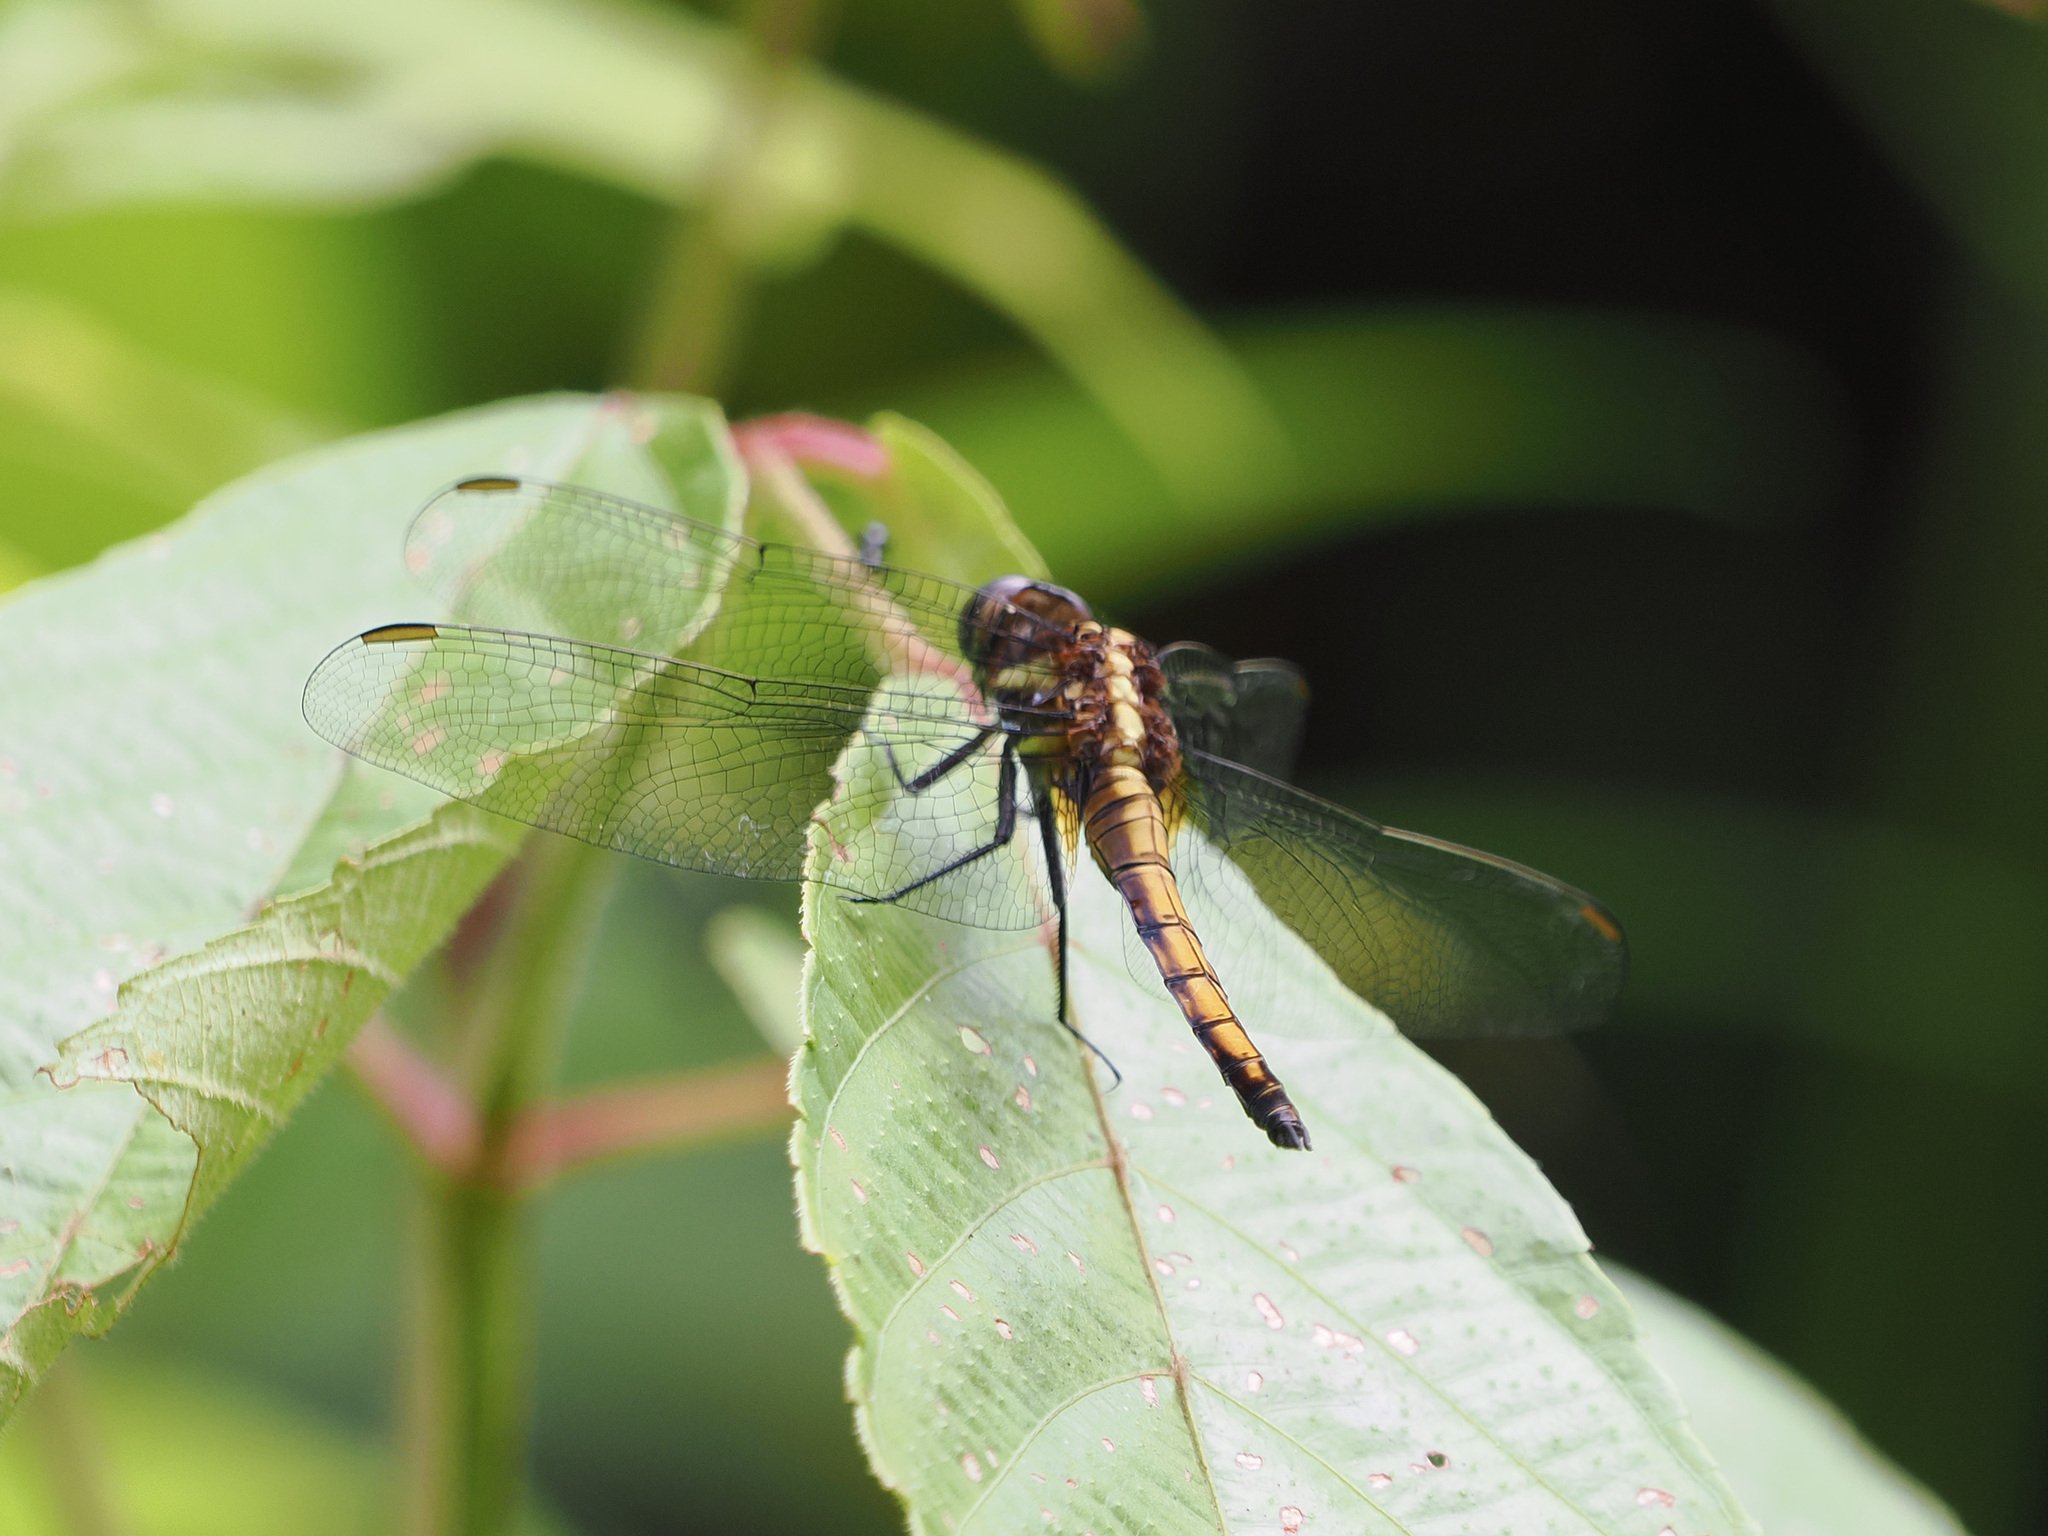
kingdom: Animalia
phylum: Arthropoda
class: Insecta
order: Odonata
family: Libellulidae
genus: Orthetrum
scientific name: Orthetrum glaucum
